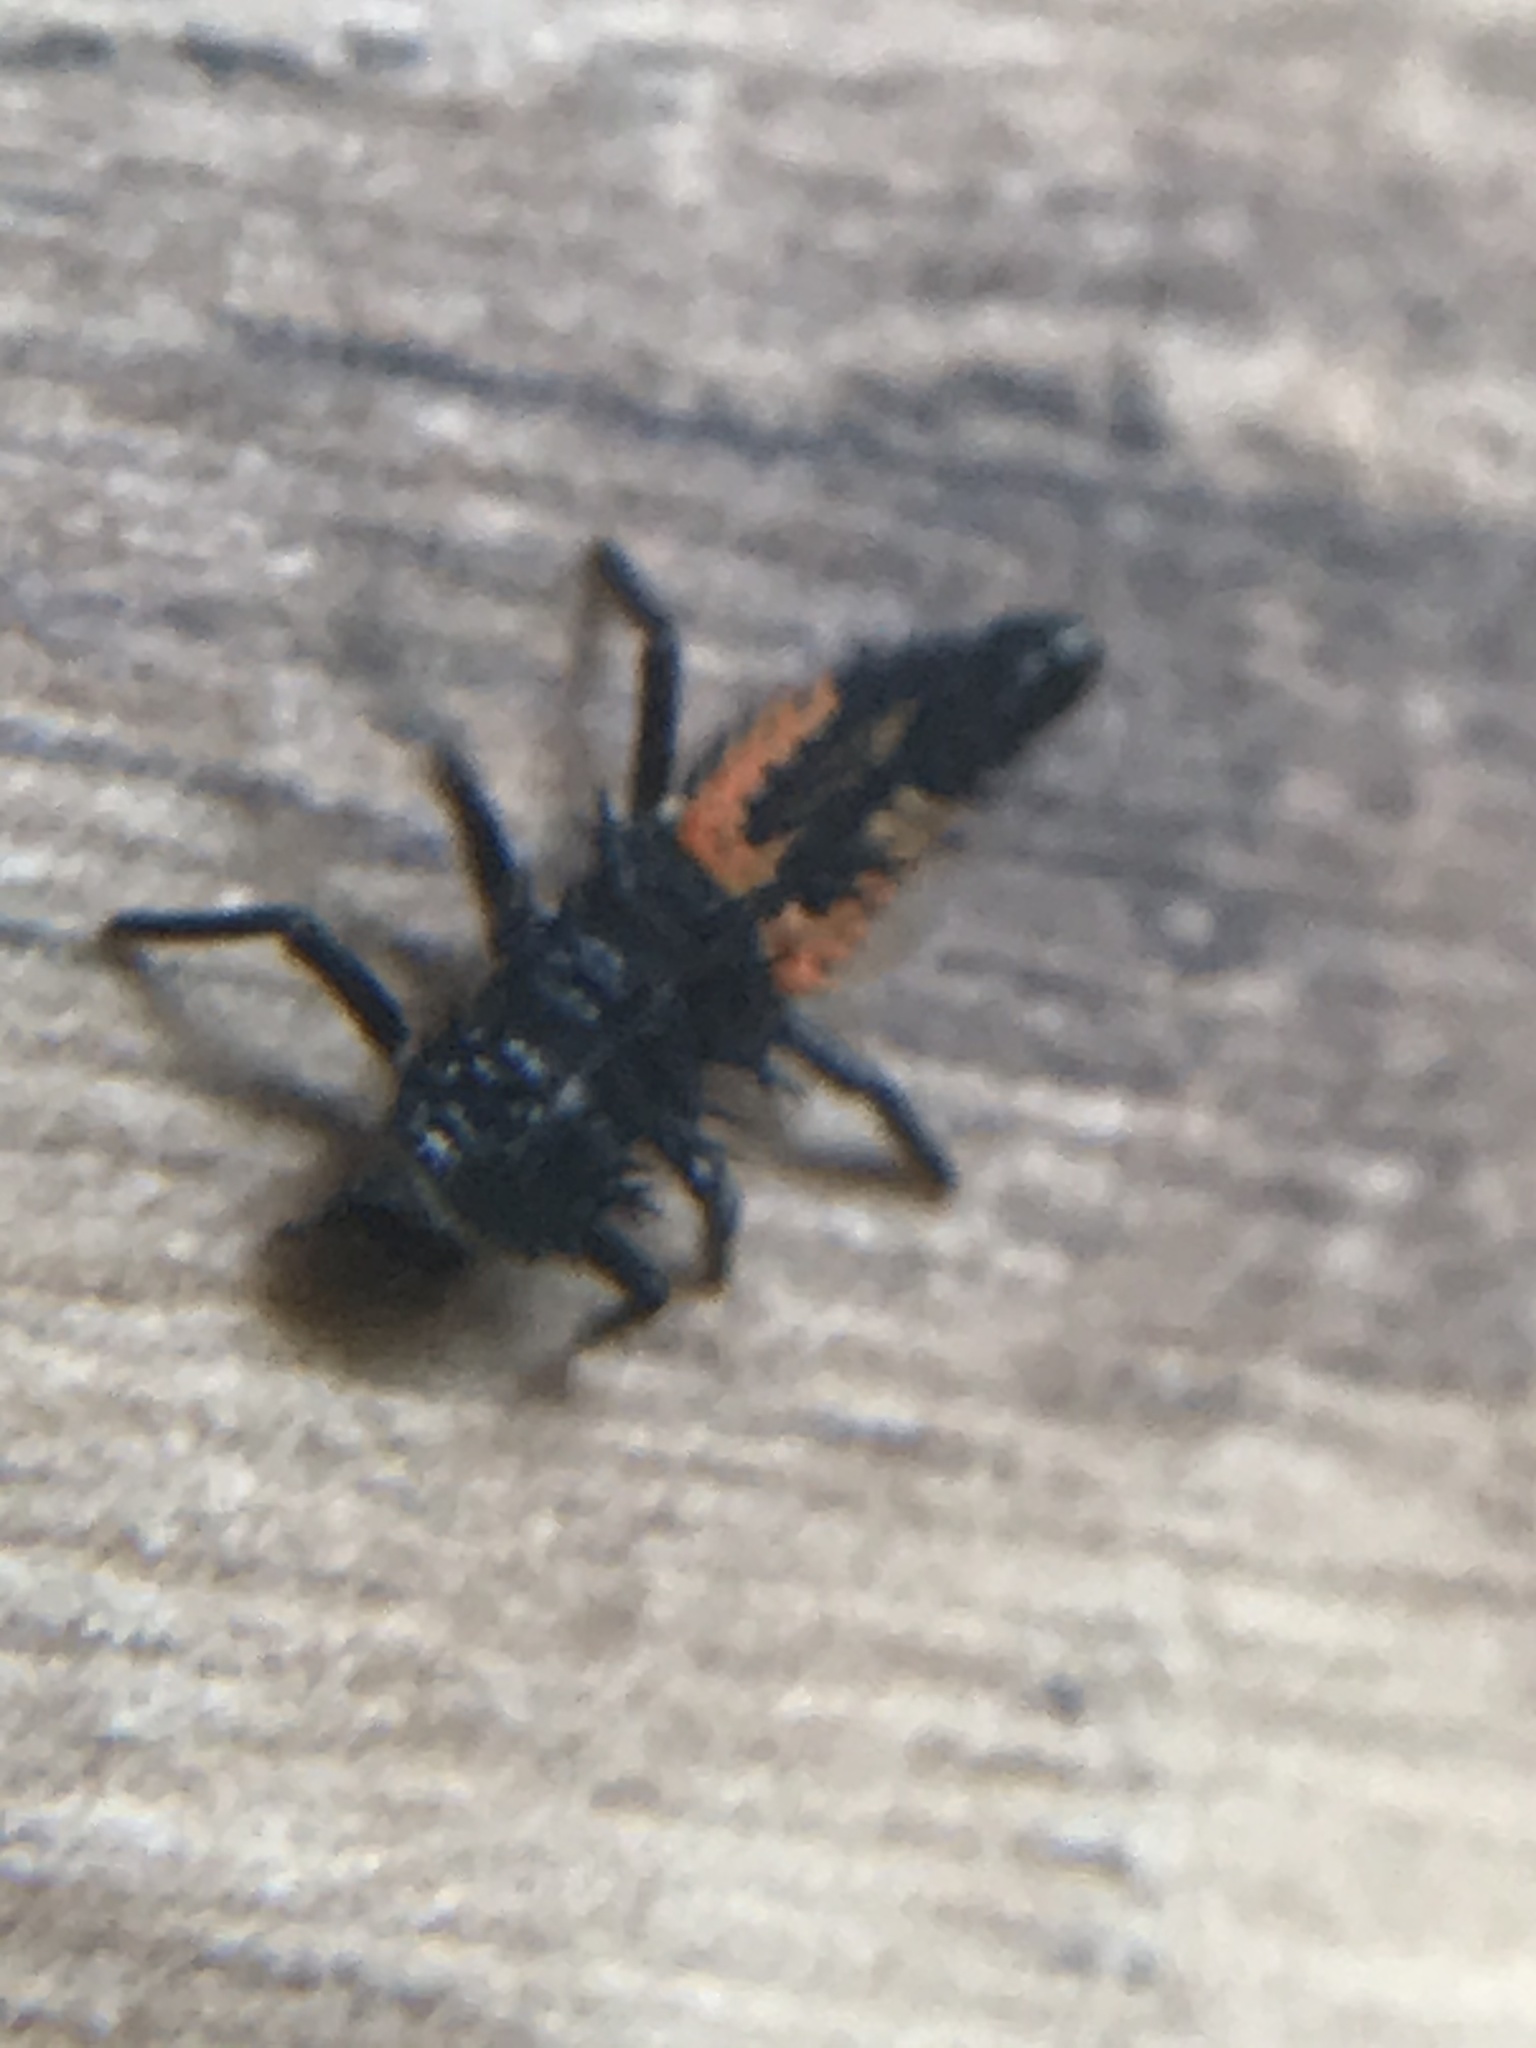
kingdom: Animalia
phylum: Arthropoda
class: Insecta
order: Coleoptera
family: Coccinellidae
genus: Harmonia
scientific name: Harmonia axyridis
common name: Harlequin ladybird
